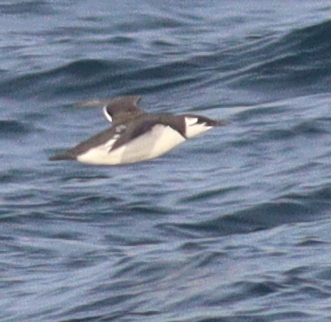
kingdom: Animalia
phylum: Chordata
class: Aves
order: Charadriiformes
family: Alcidae
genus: Uria
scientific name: Uria aalge
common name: Common murre
